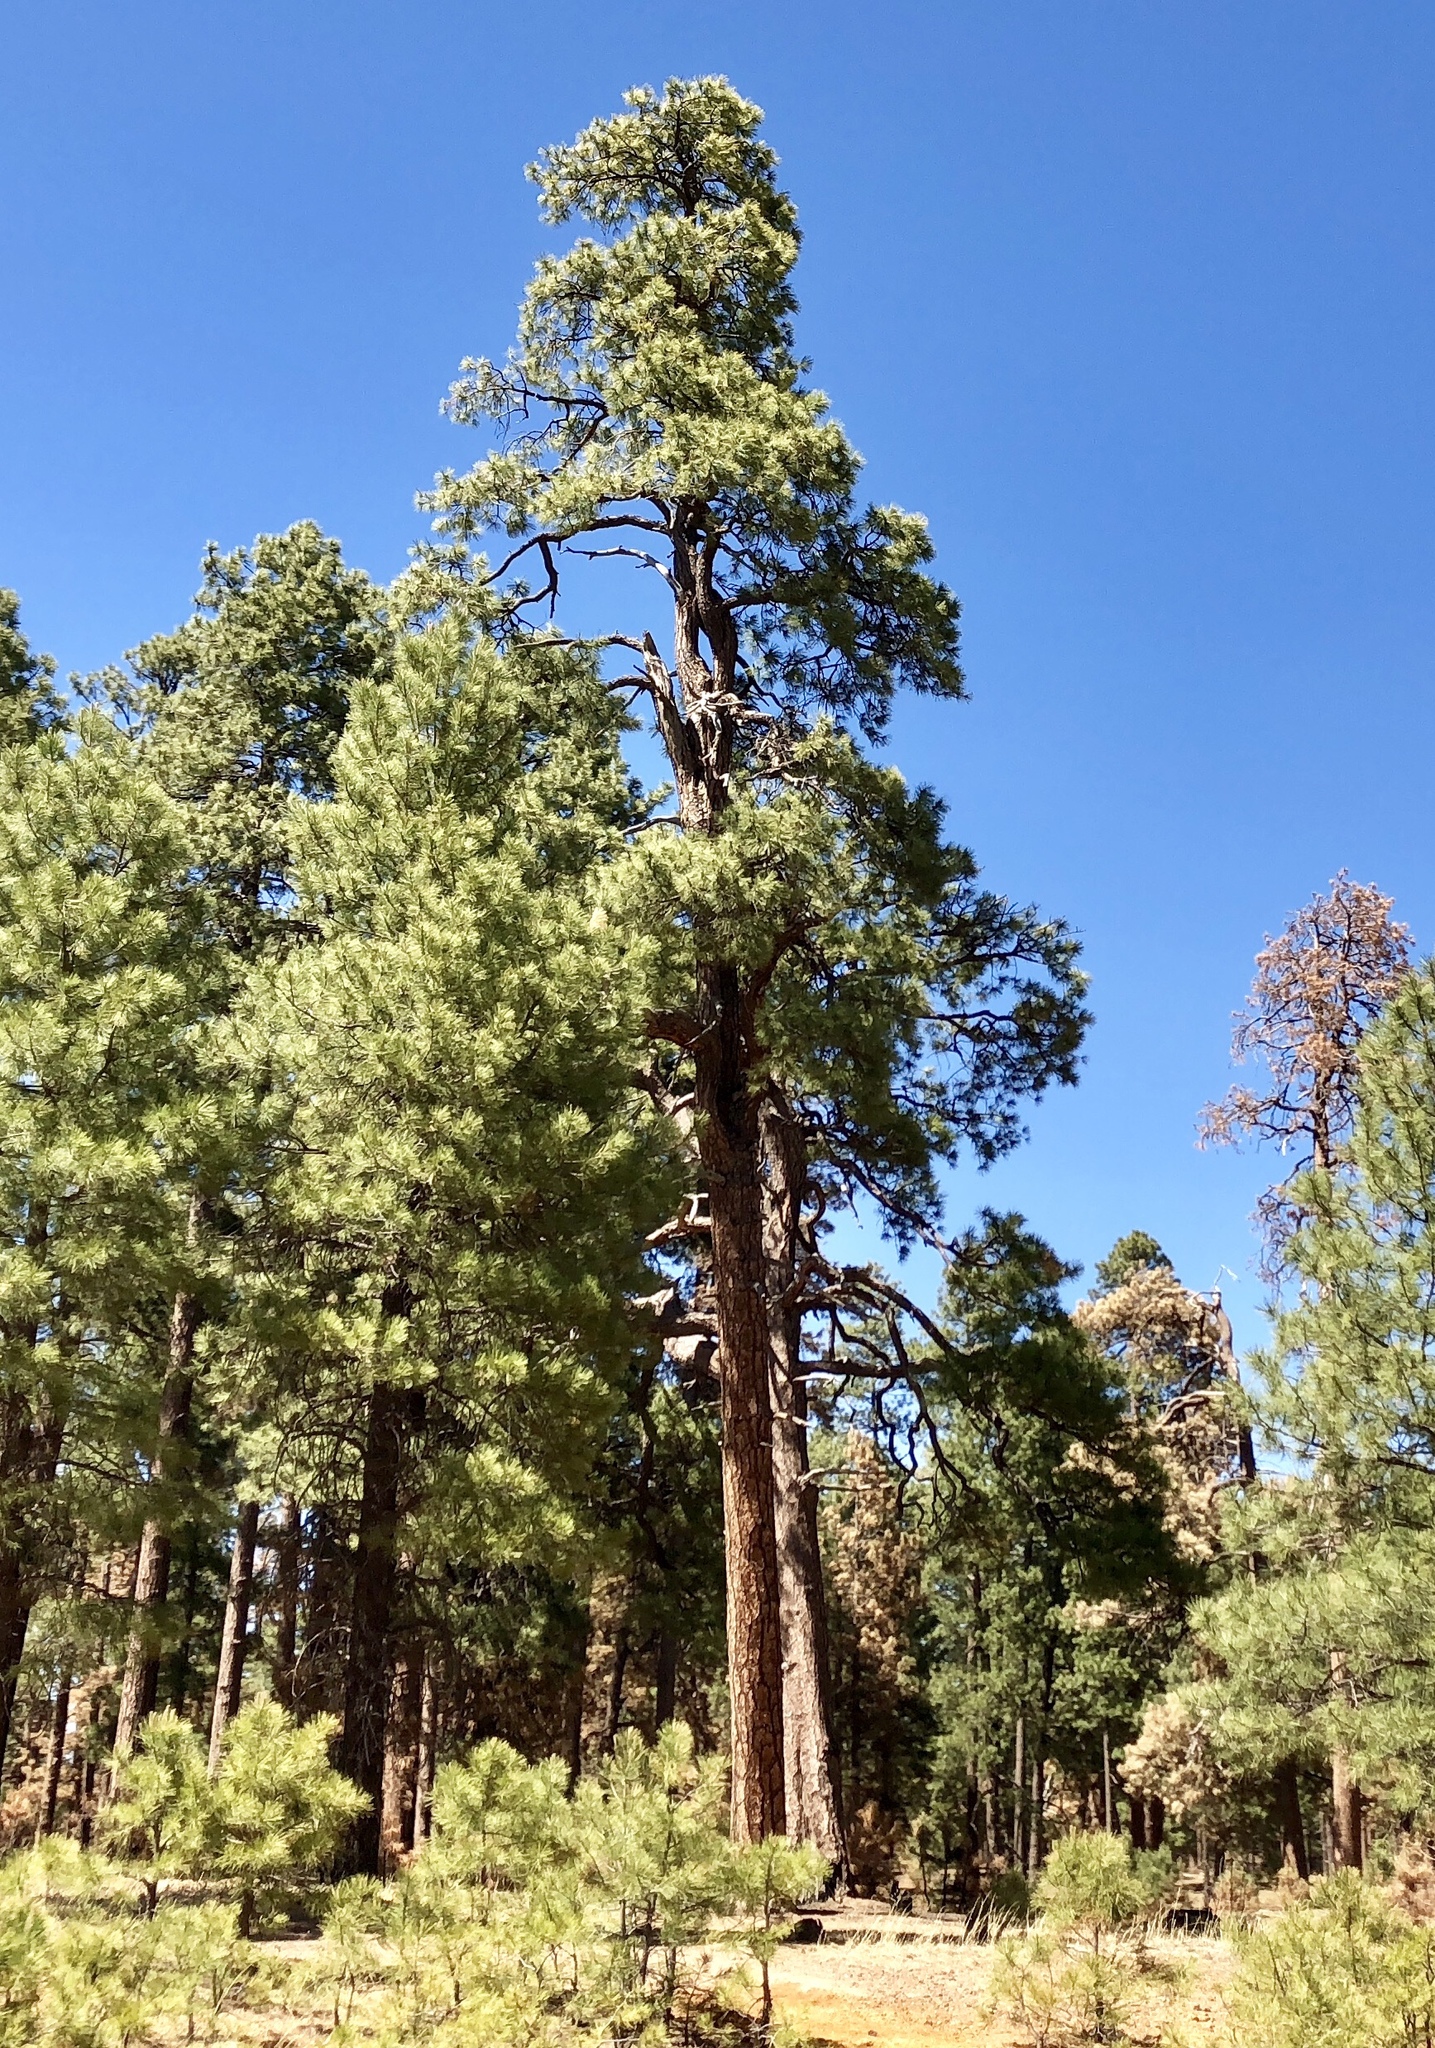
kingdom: Plantae
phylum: Tracheophyta
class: Pinopsida
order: Pinales
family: Pinaceae
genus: Pinus
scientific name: Pinus ponderosa
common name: Western yellow-pine
